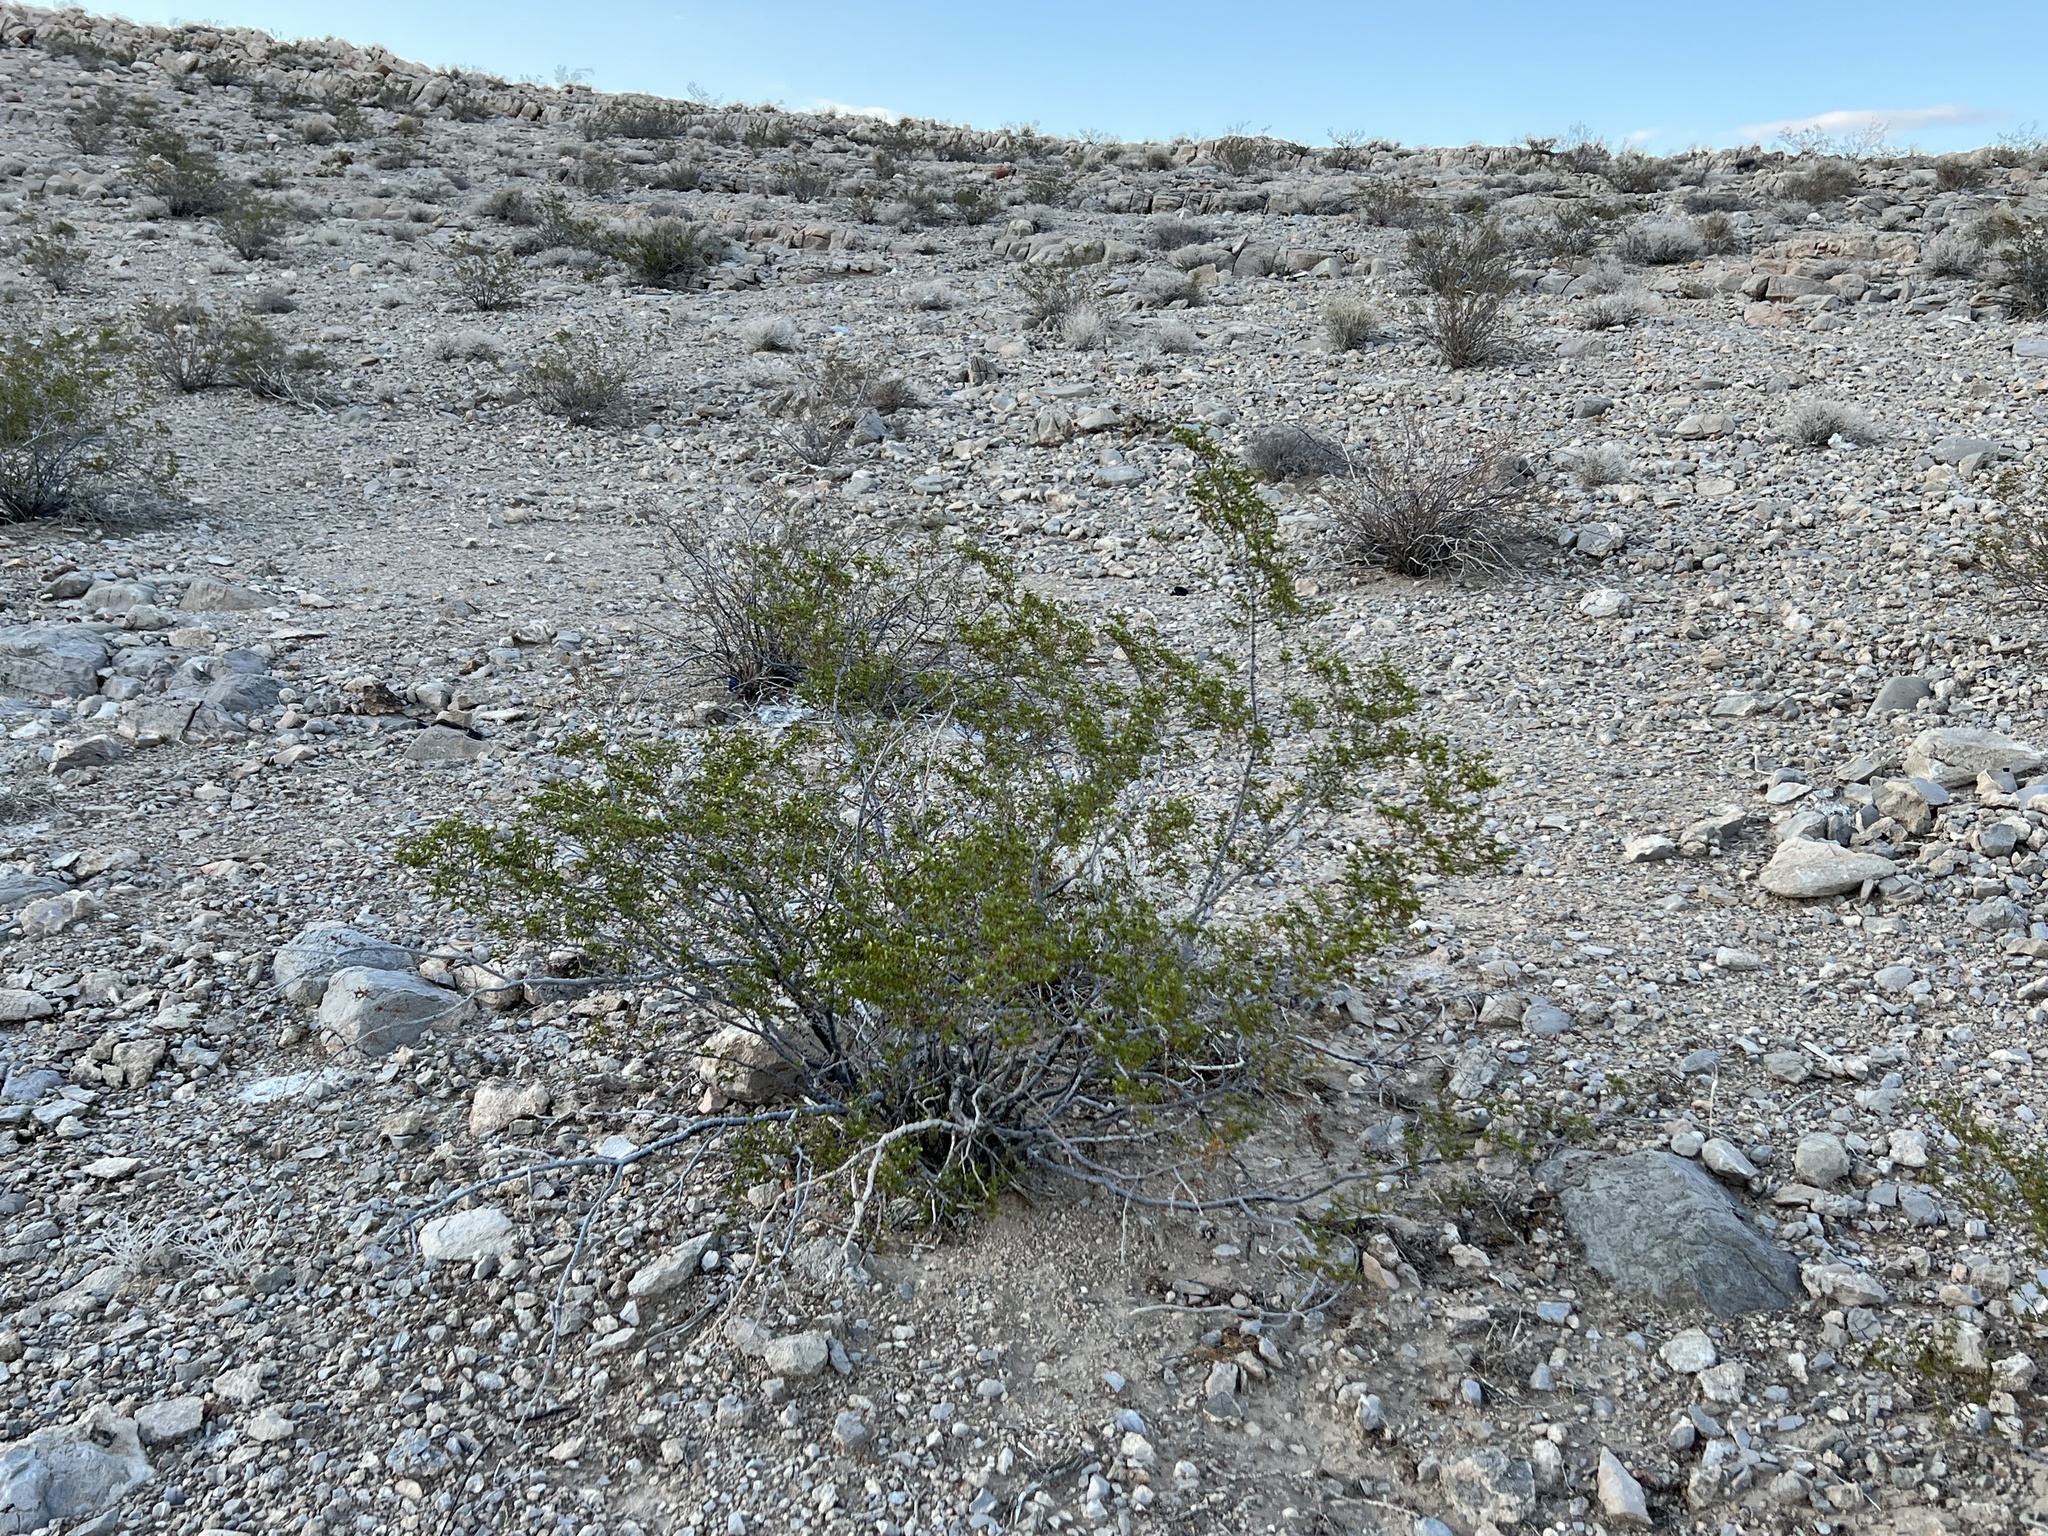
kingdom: Plantae
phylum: Tracheophyta
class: Magnoliopsida
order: Zygophyllales
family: Zygophyllaceae
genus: Larrea
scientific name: Larrea tridentata
